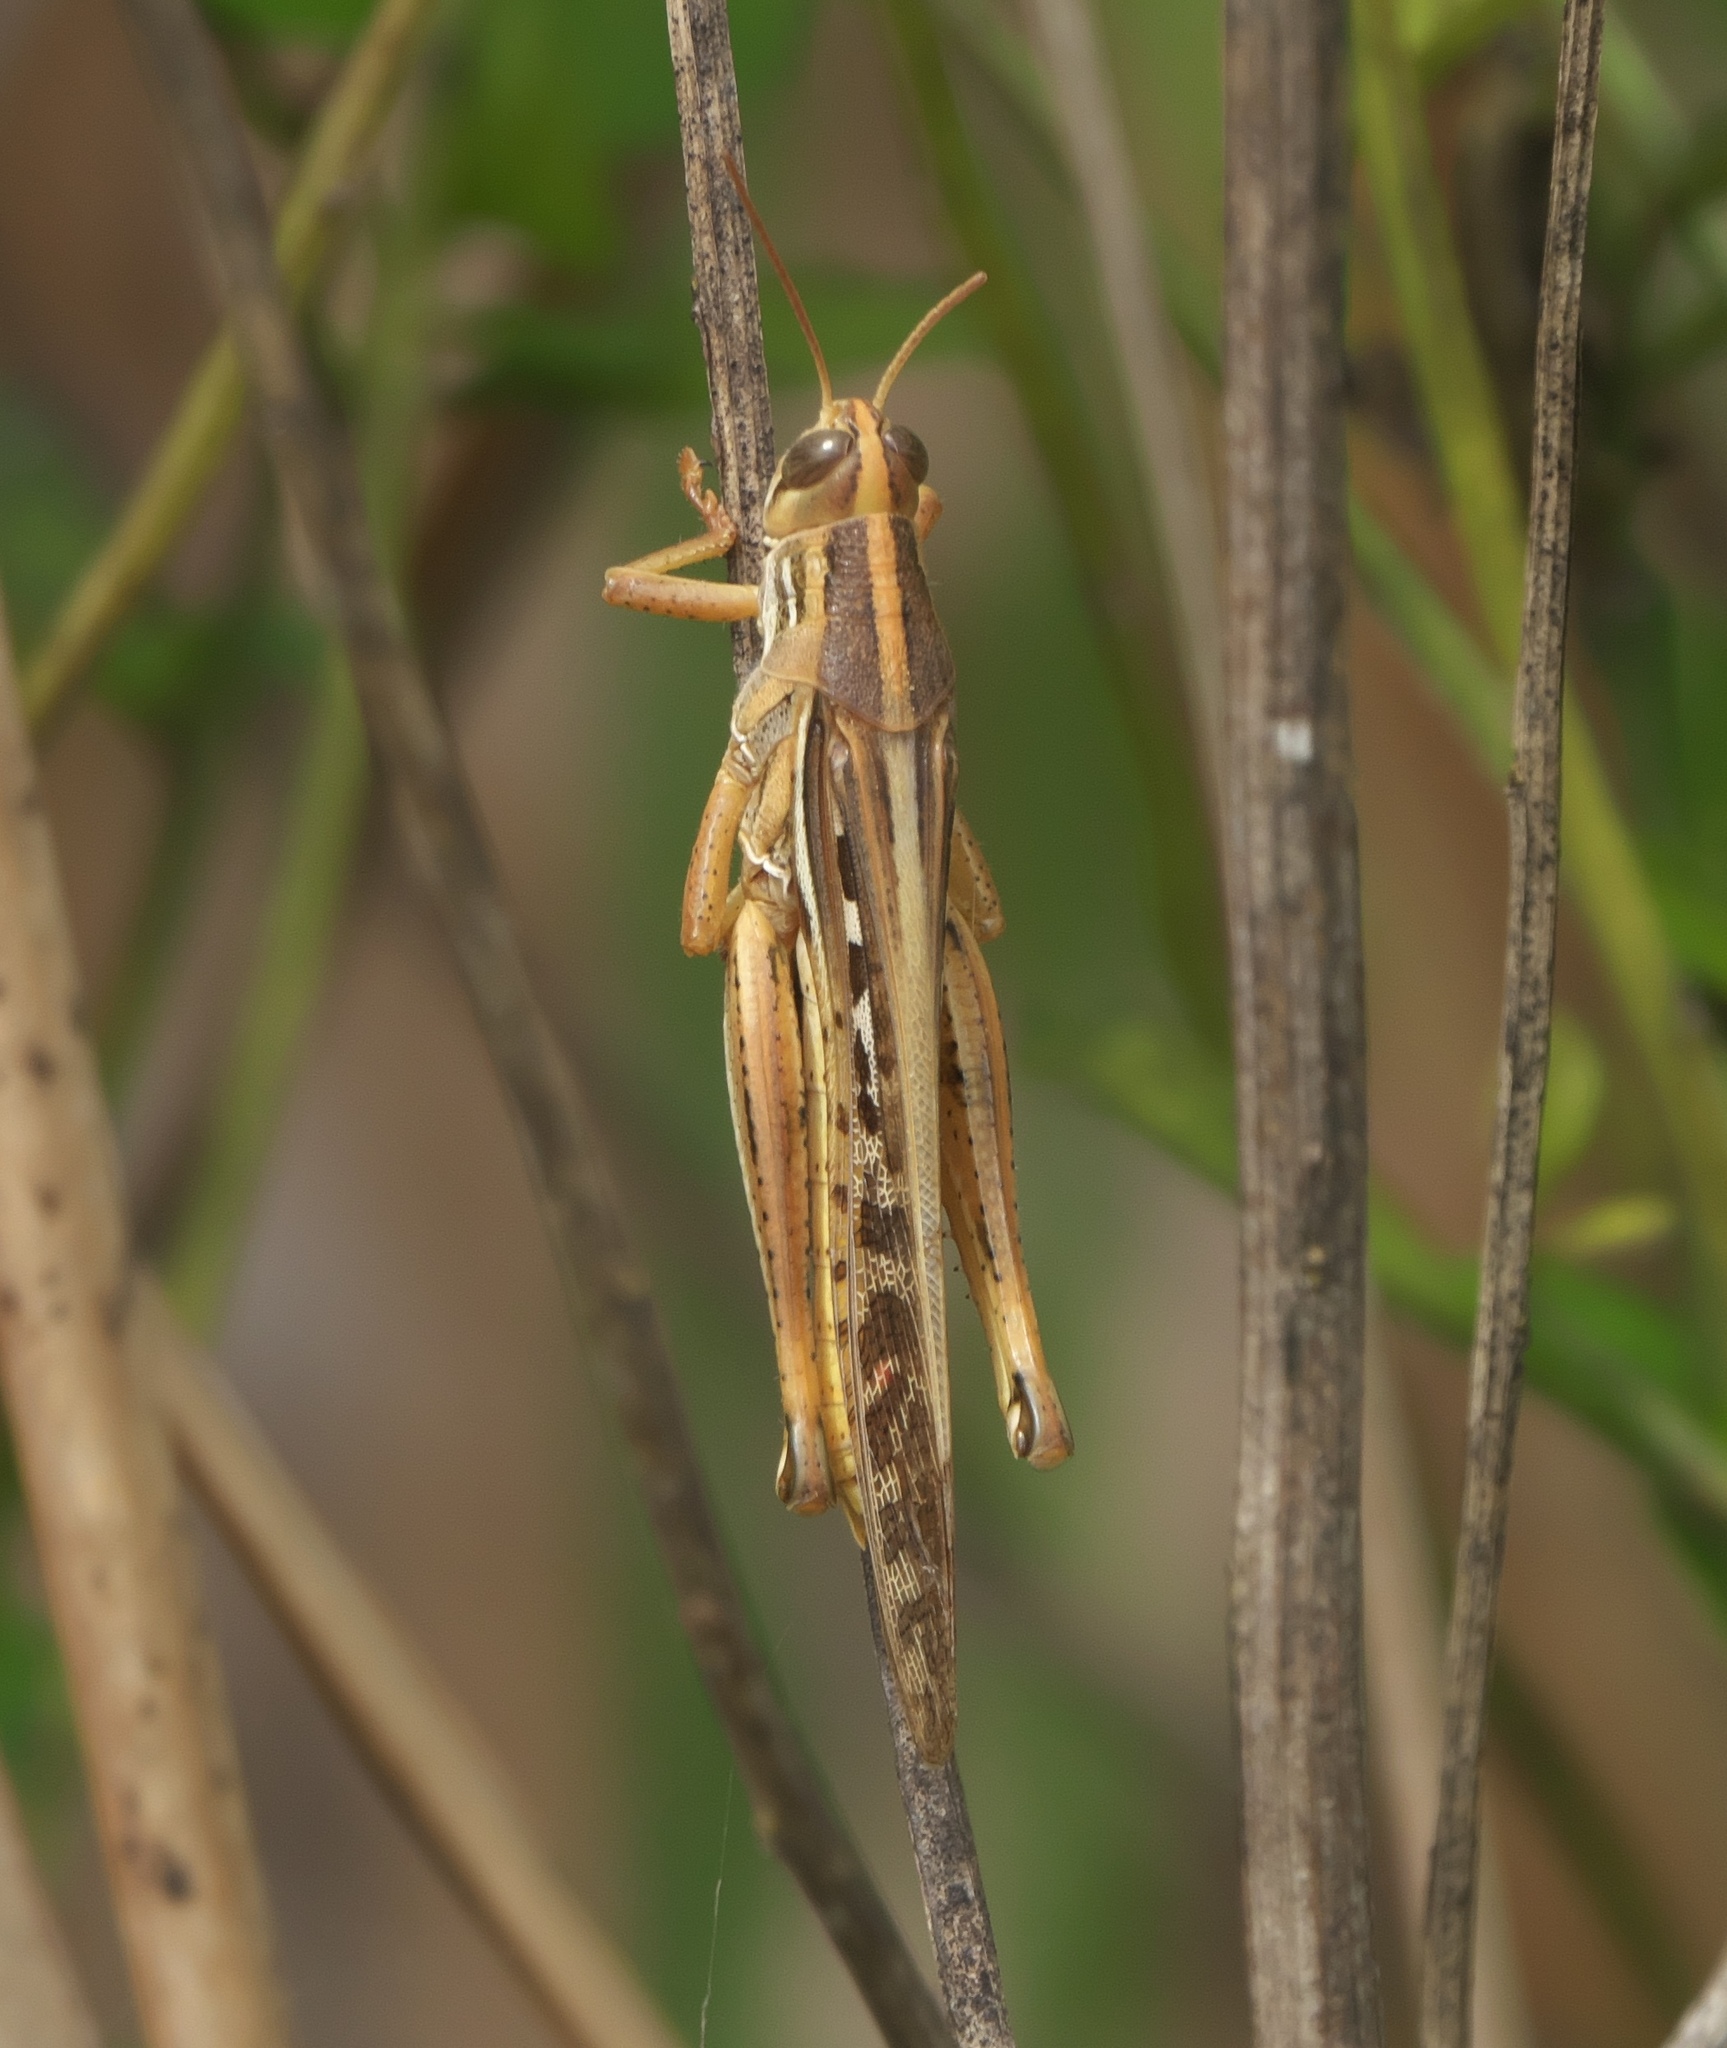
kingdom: Animalia
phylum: Arthropoda
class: Insecta
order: Orthoptera
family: Acrididae
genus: Schistocerca
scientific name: Schistocerca americana
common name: American bird locust
